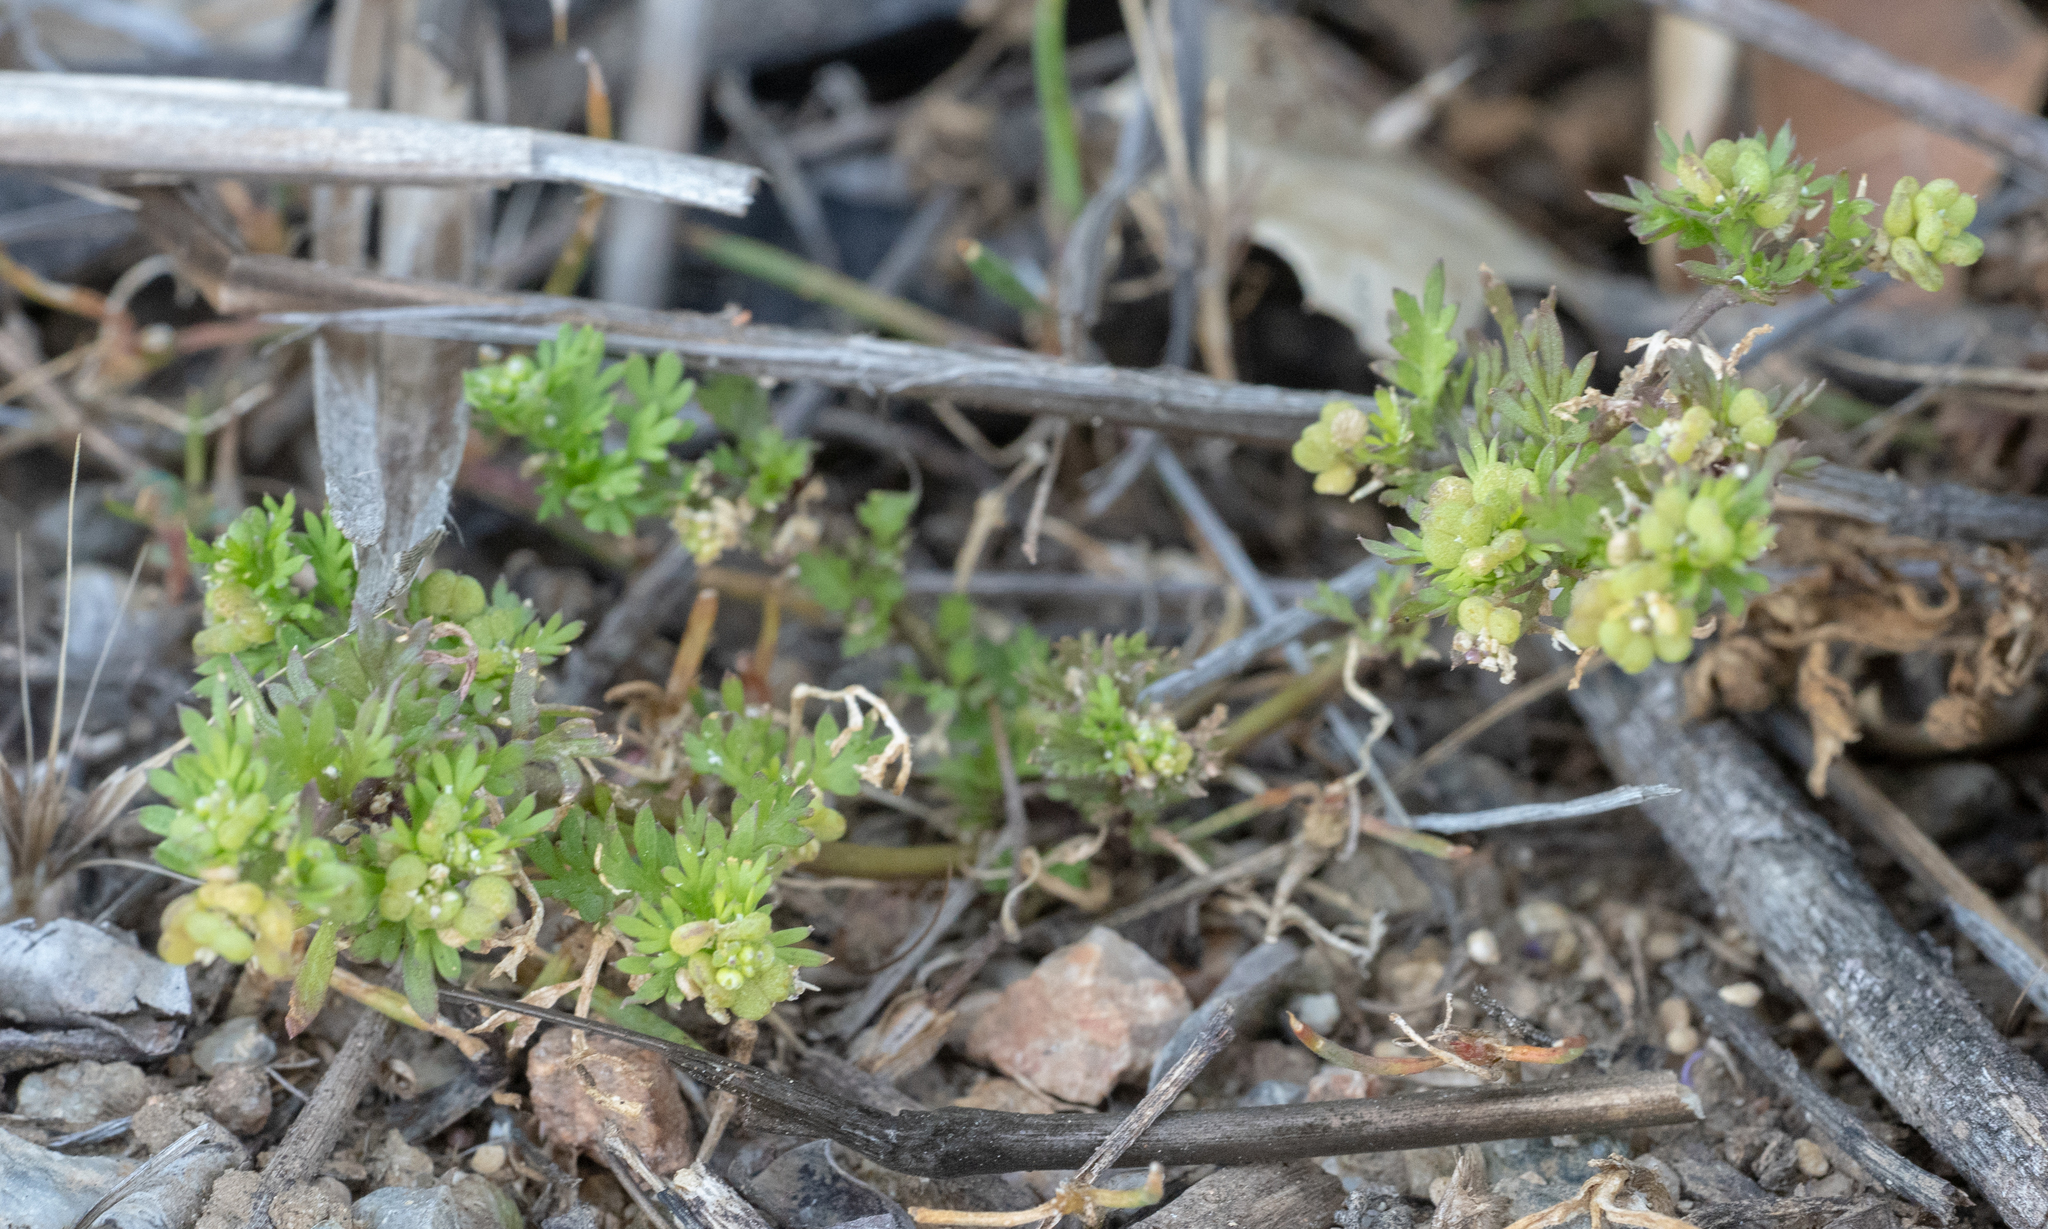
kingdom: Plantae
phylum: Tracheophyta
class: Magnoliopsida
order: Brassicales
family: Brassicaceae
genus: Lepidium
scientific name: Lepidium didymum
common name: Lesser swinecress
